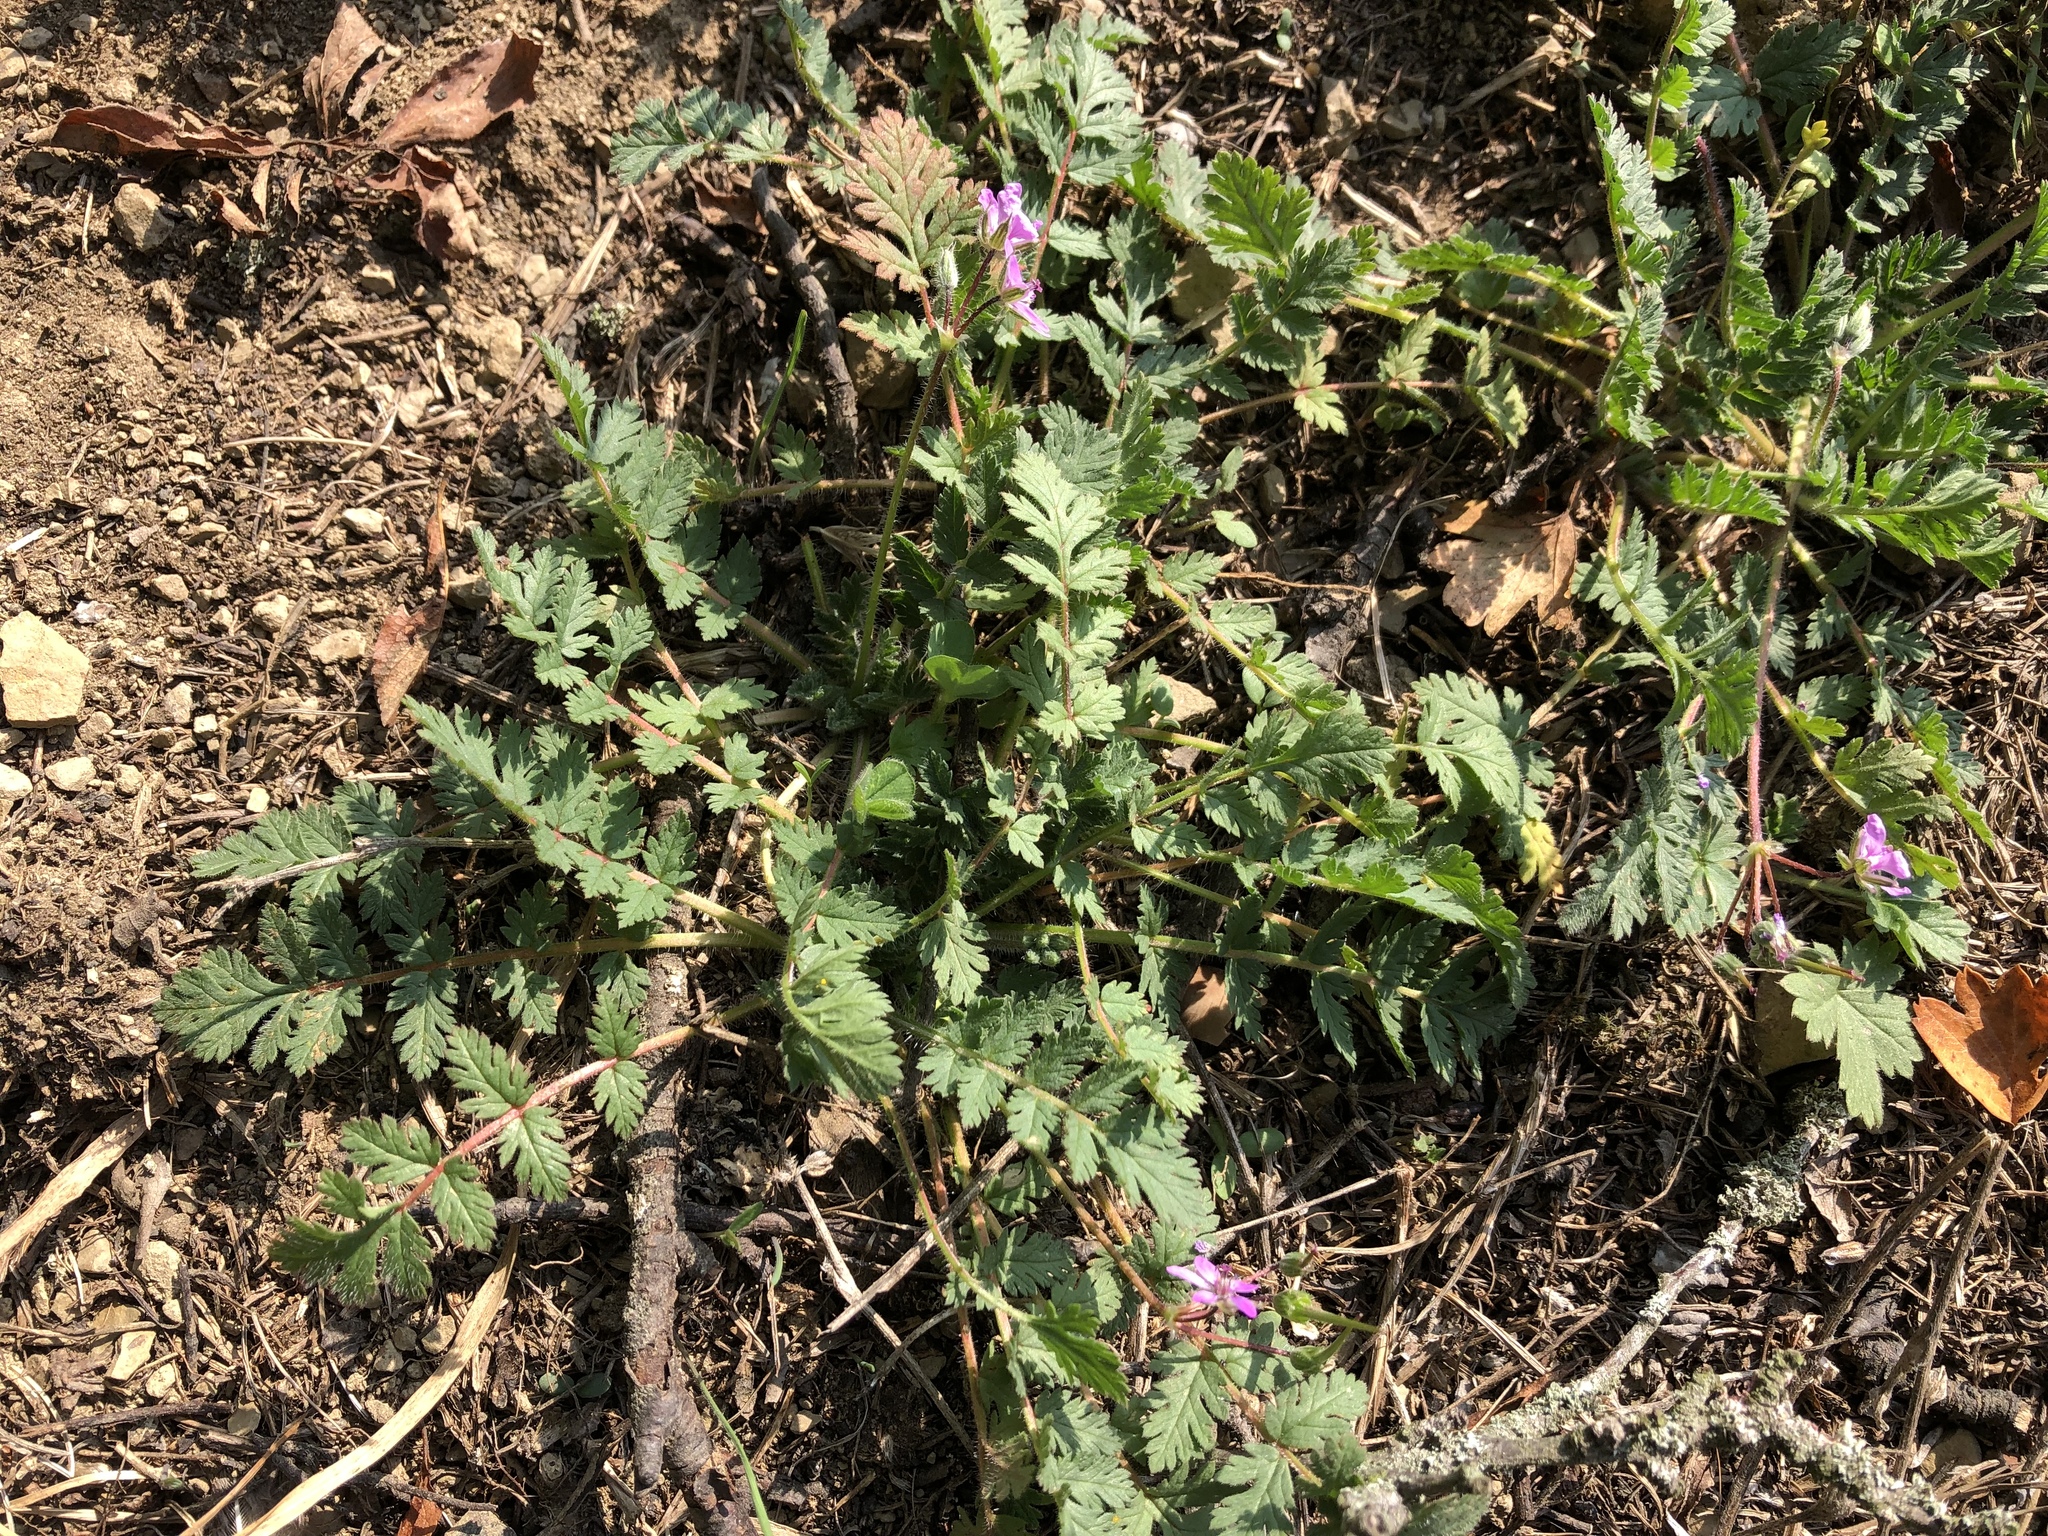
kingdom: Plantae
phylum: Tracheophyta
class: Magnoliopsida
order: Geraniales
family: Geraniaceae
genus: Erodium
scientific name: Erodium cicutarium
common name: Common stork's-bill
